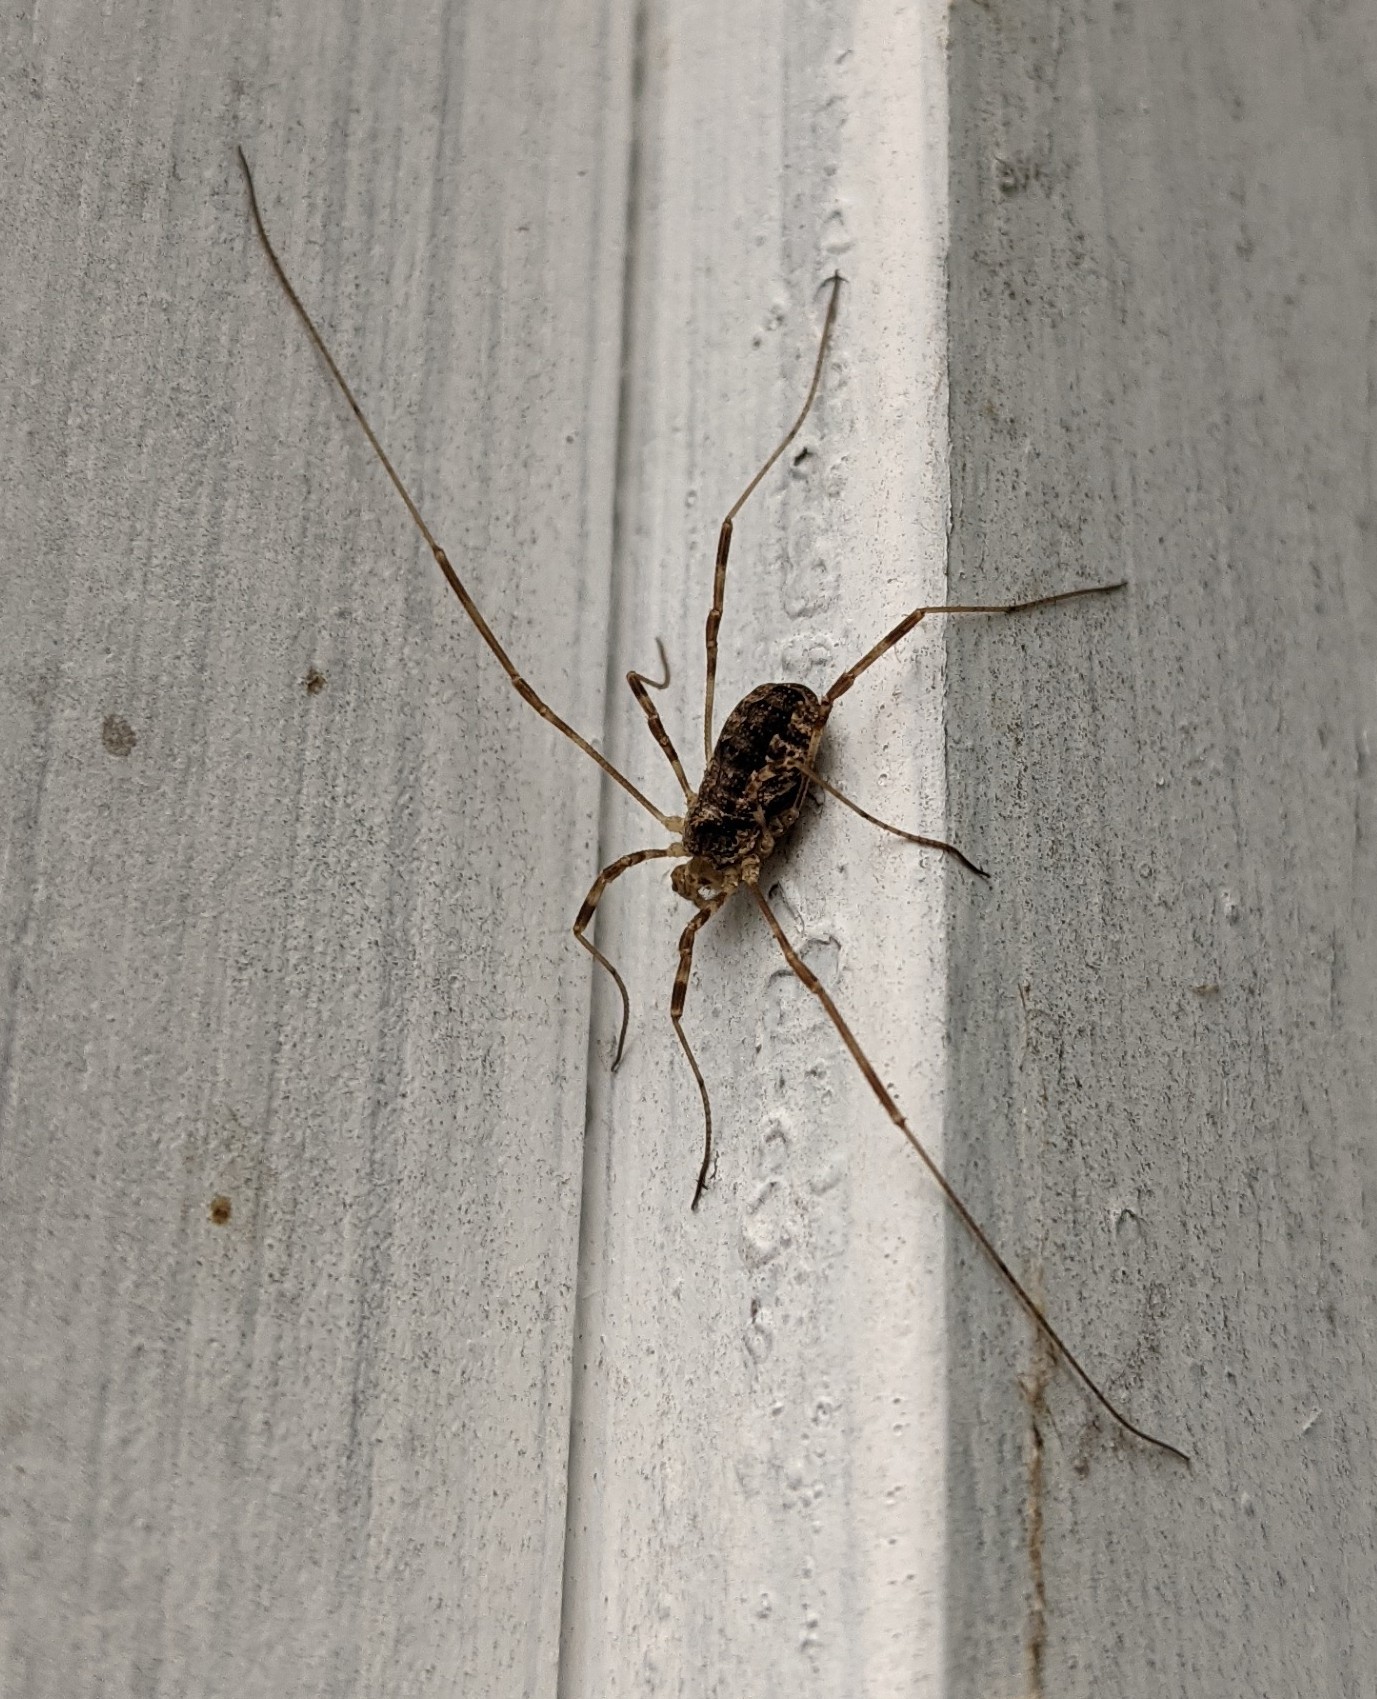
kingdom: Animalia
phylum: Arthropoda
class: Arachnida
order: Opiliones
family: Phalangiidae
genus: Odiellus
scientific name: Odiellus pictus
